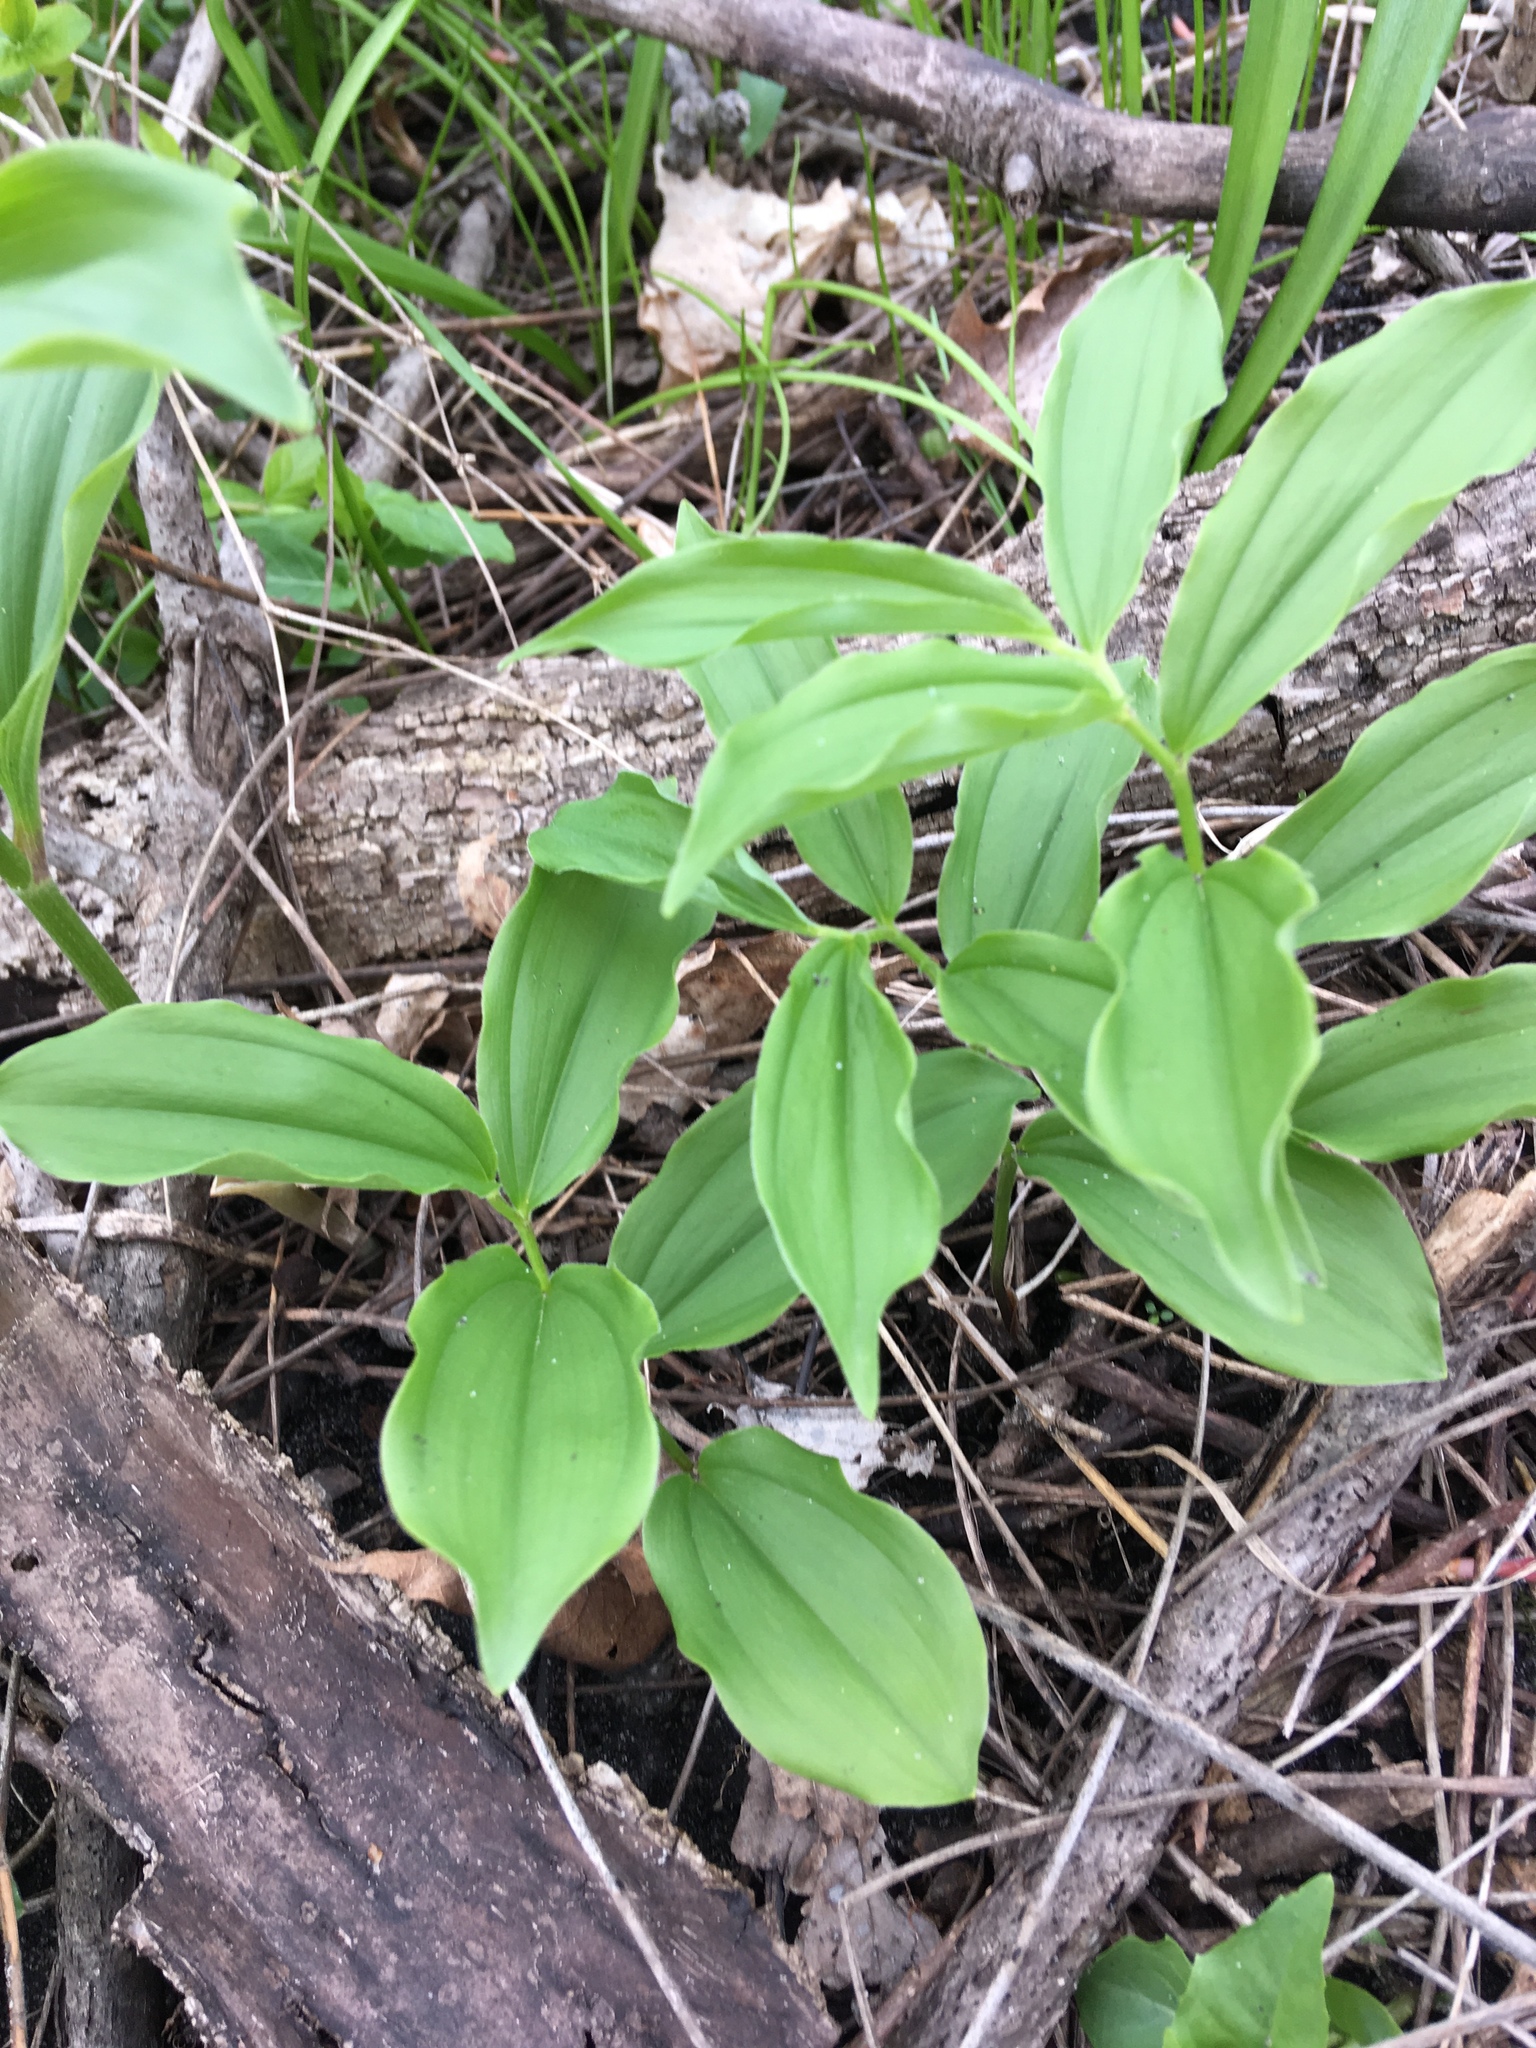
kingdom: Plantae
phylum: Tracheophyta
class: Liliopsida
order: Asparagales
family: Asparagaceae
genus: Maianthemum
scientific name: Maianthemum racemosum
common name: False spikenard
